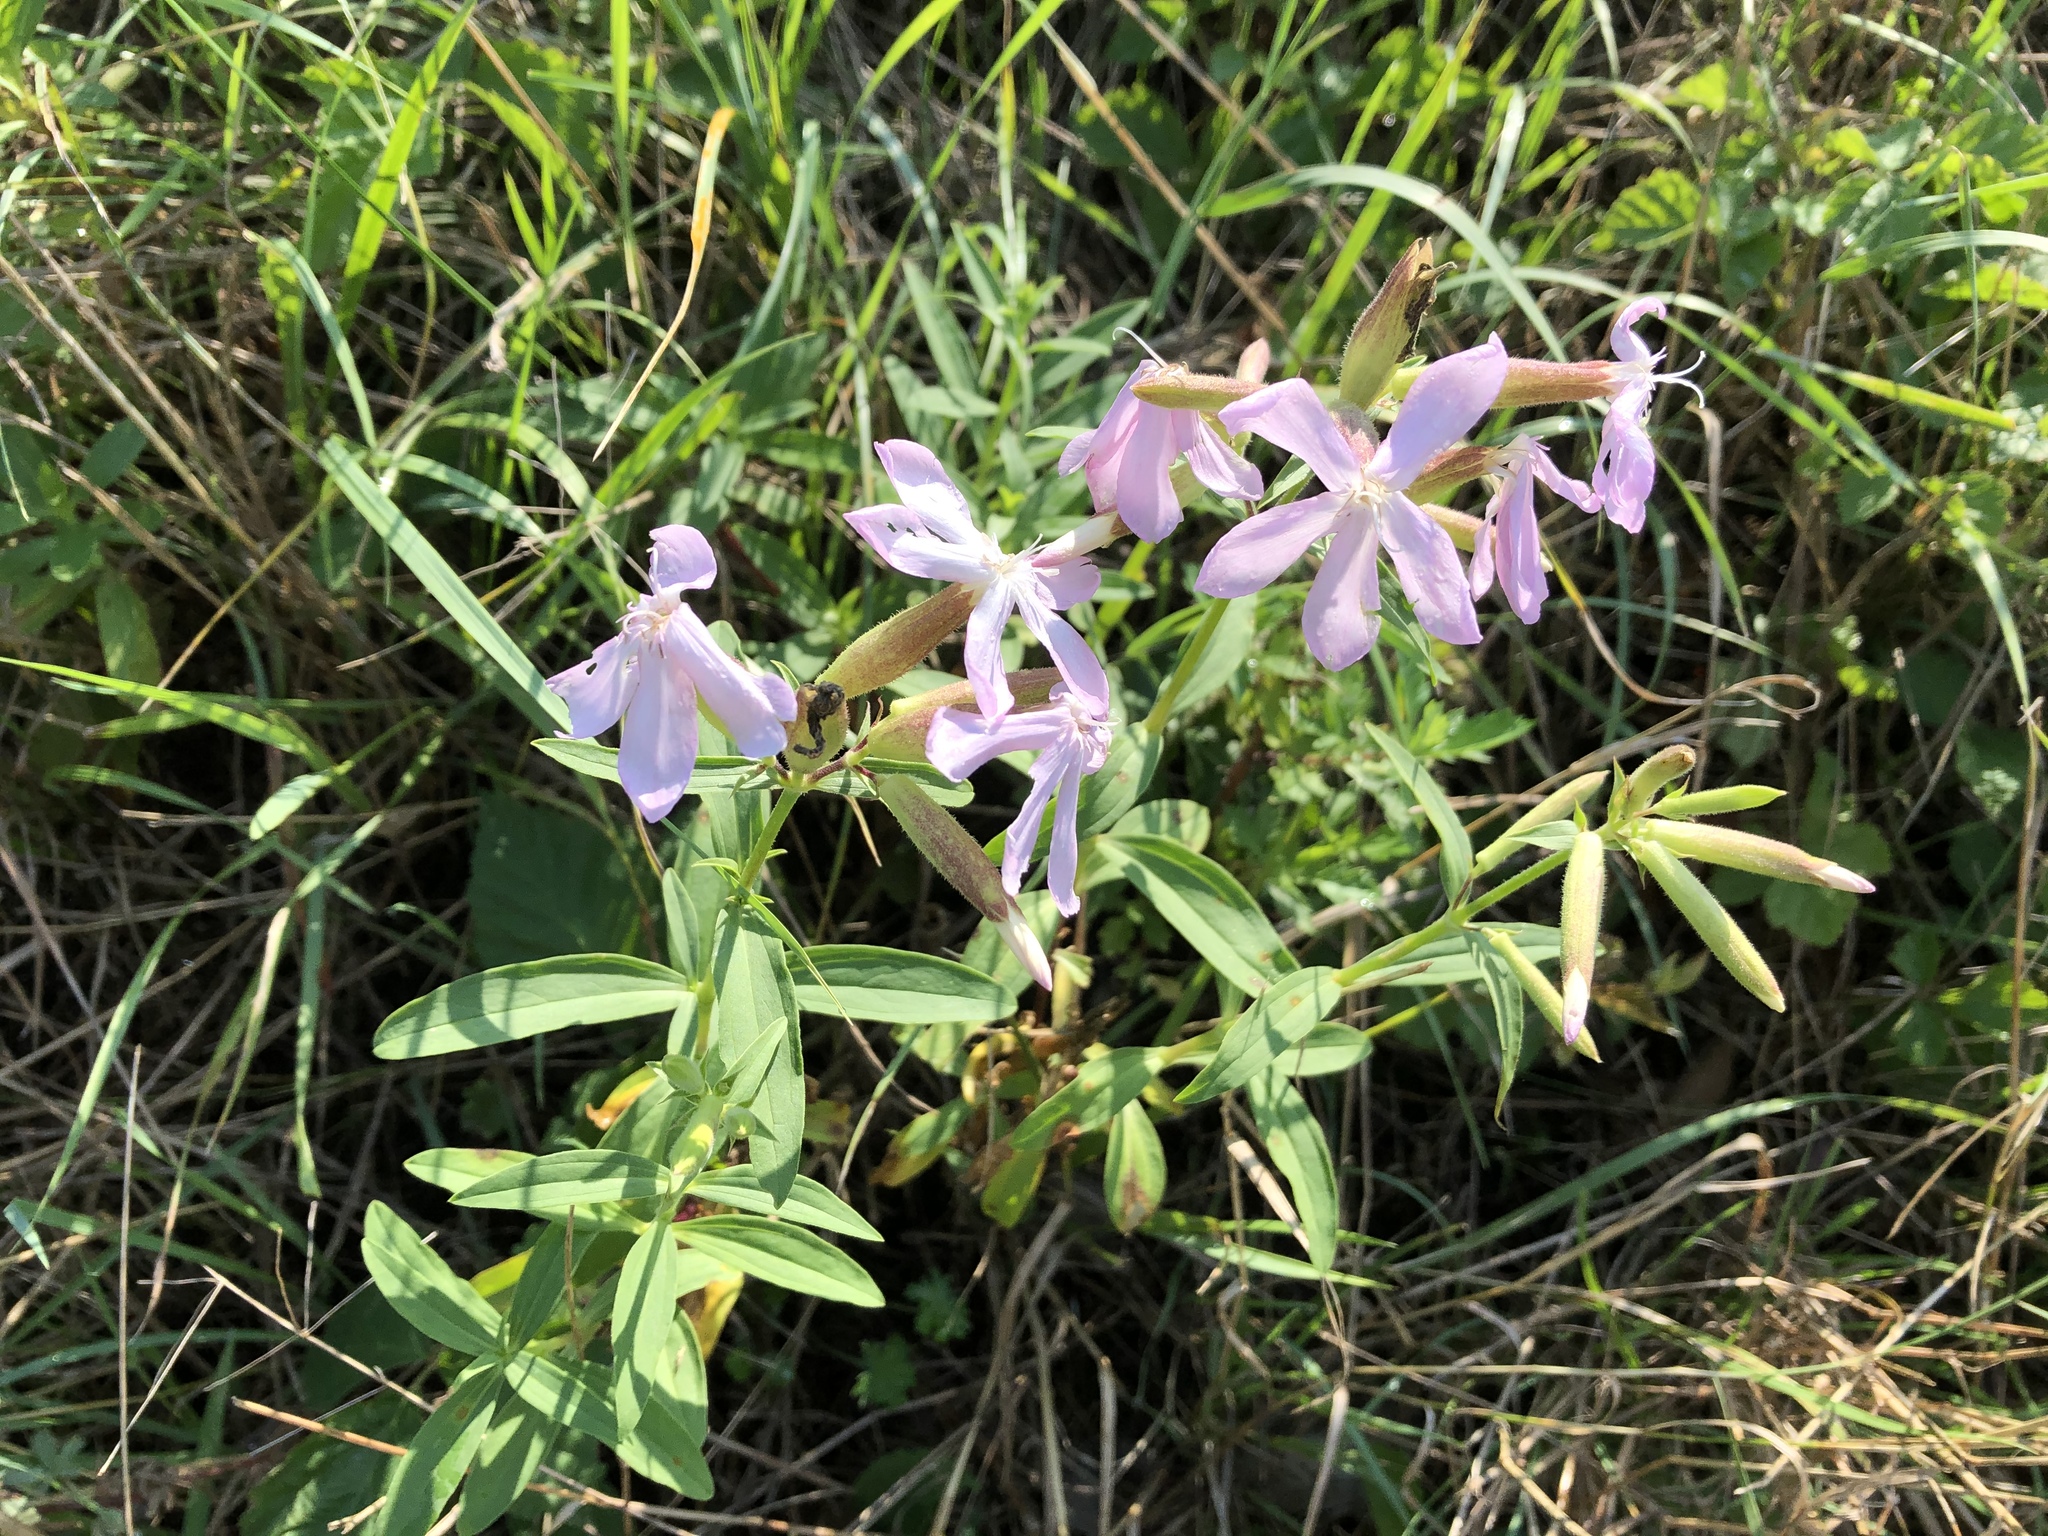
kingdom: Plantae
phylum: Tracheophyta
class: Magnoliopsida
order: Caryophyllales
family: Caryophyllaceae
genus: Saponaria
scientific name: Saponaria officinalis
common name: Soapwort
